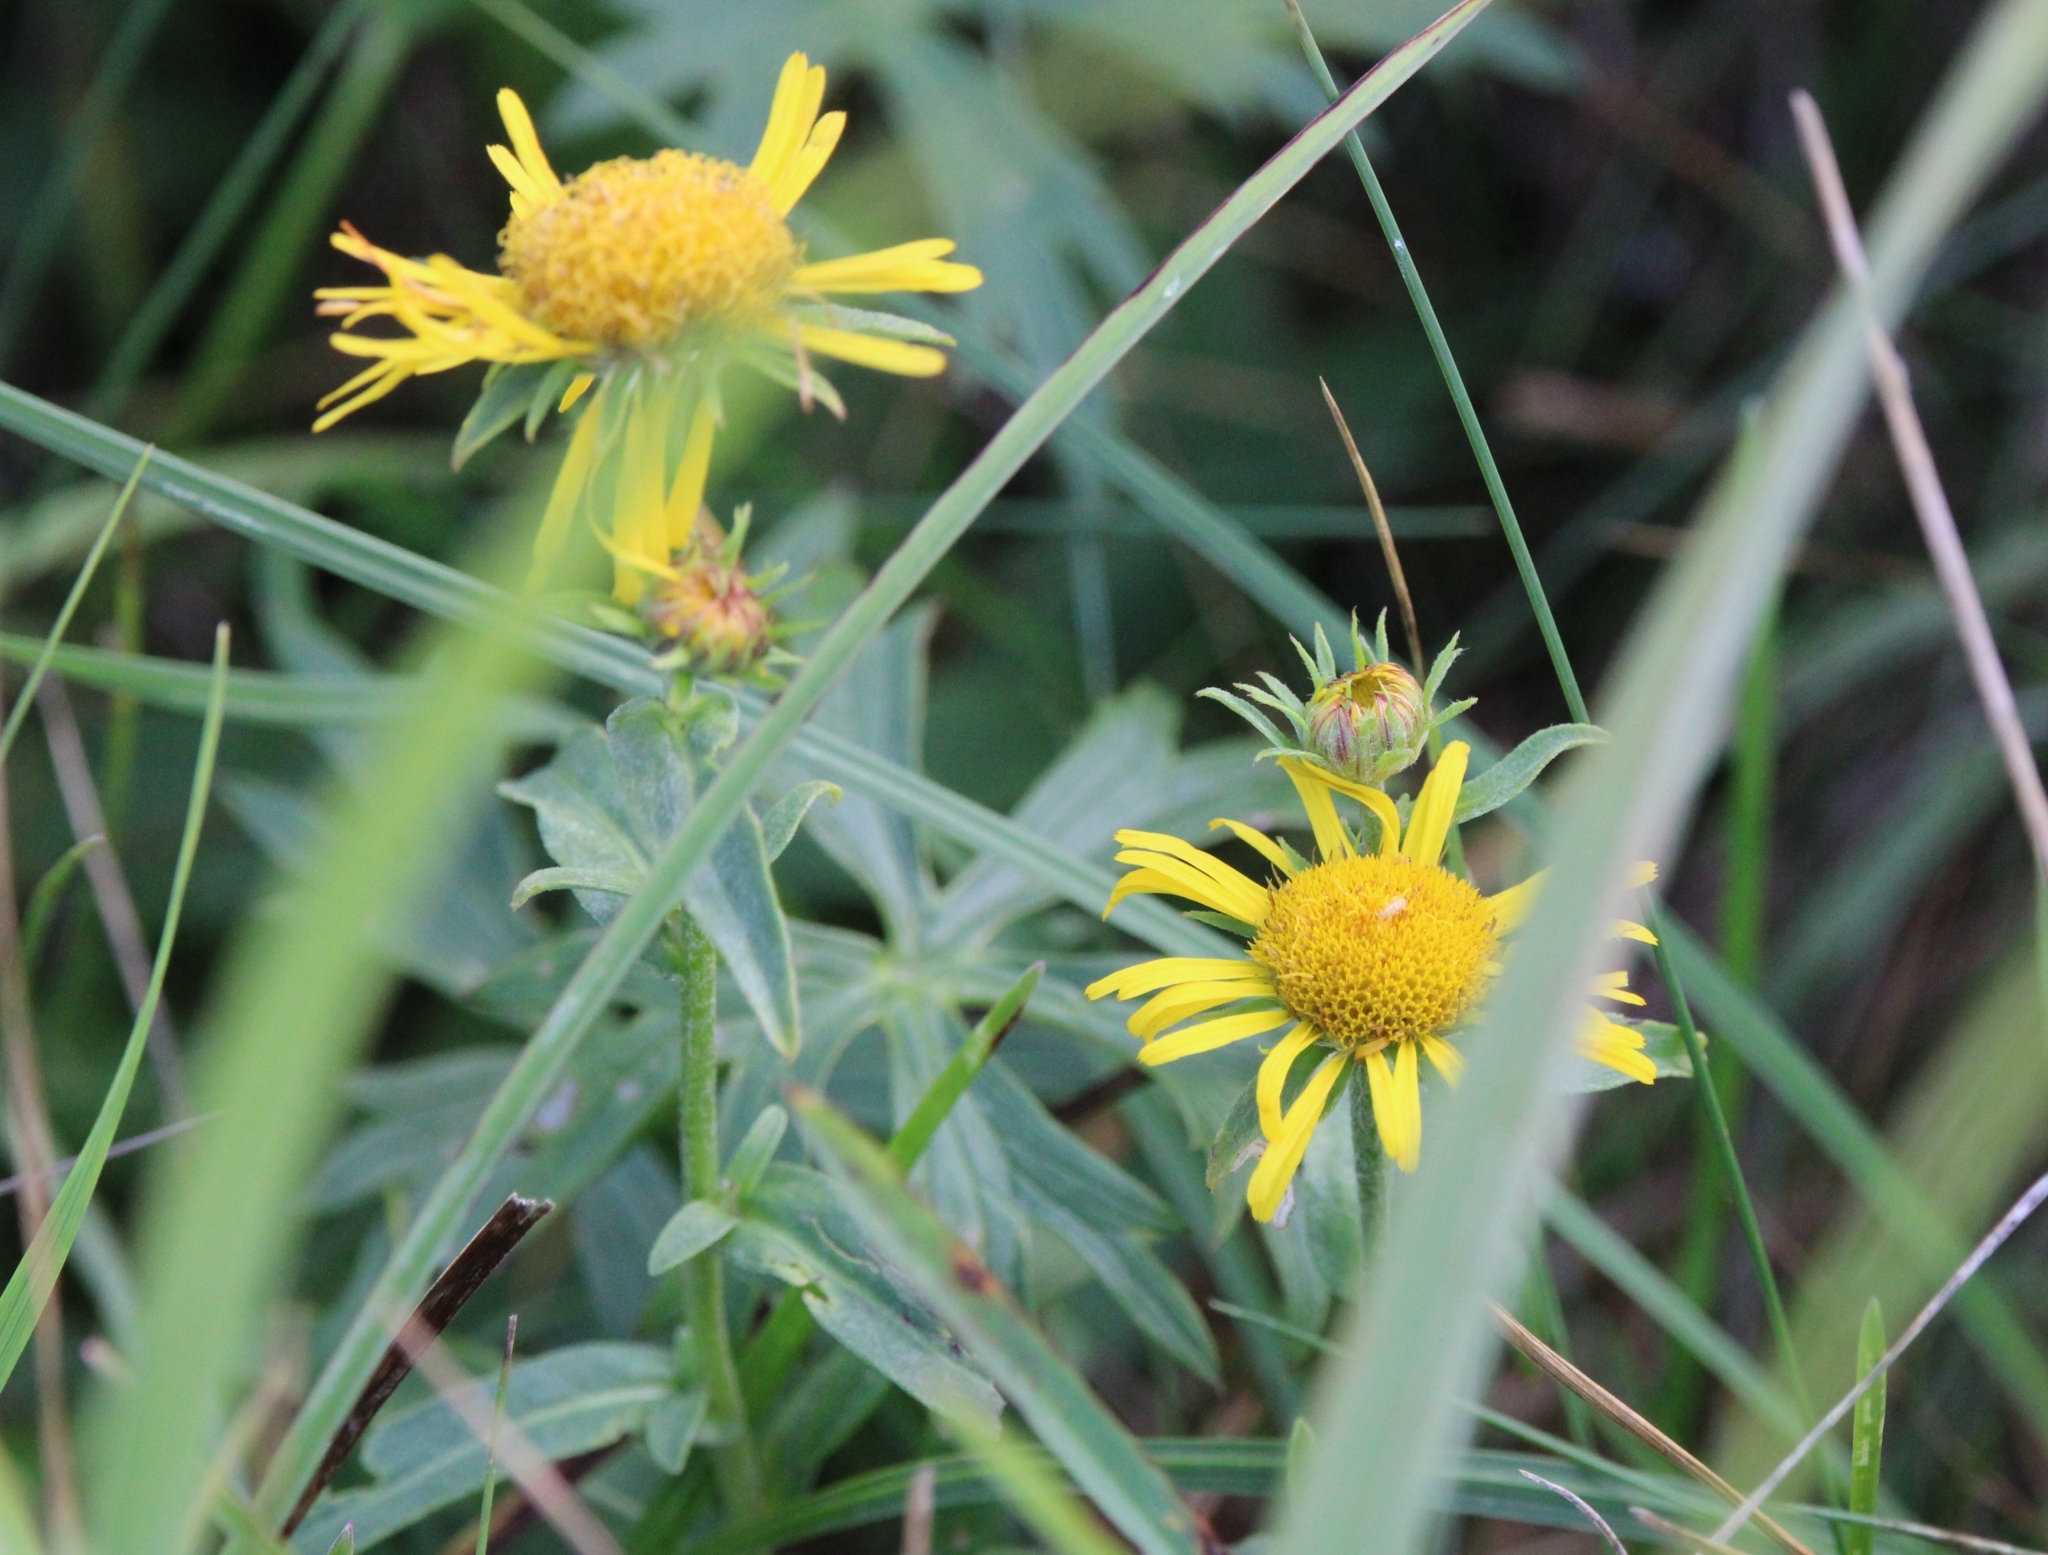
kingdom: Plantae
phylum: Tracheophyta
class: Magnoliopsida
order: Asterales
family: Asteraceae
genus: Pentanema
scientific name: Pentanema britannicum
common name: British elecampane
